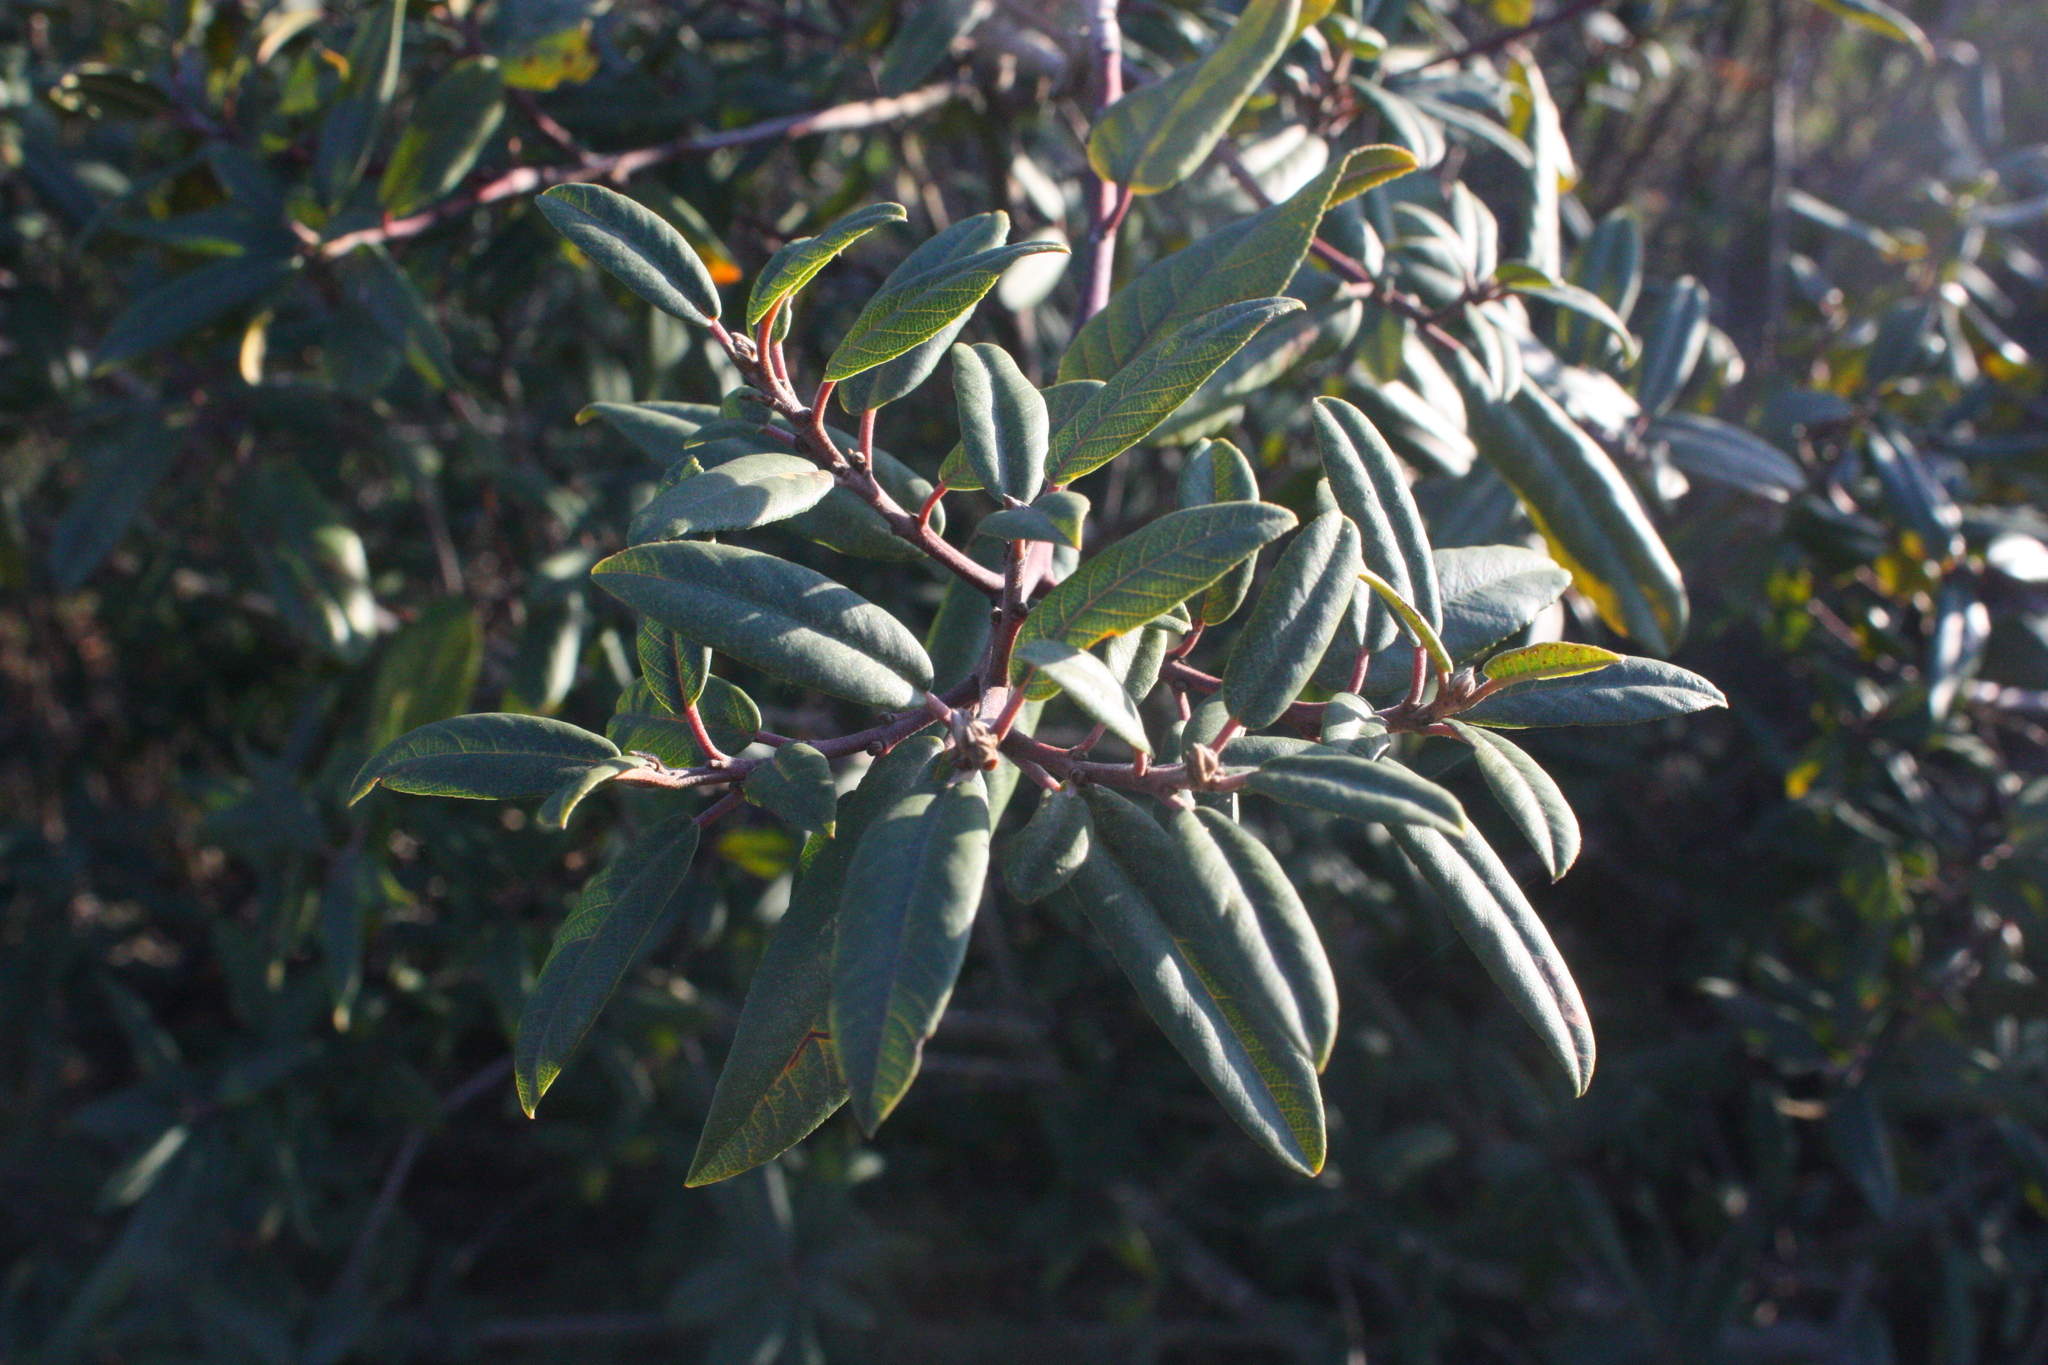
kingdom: Plantae
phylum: Tracheophyta
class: Magnoliopsida
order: Rosales
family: Rhamnaceae
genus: Frangula
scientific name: Frangula californica
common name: California buckthorn
